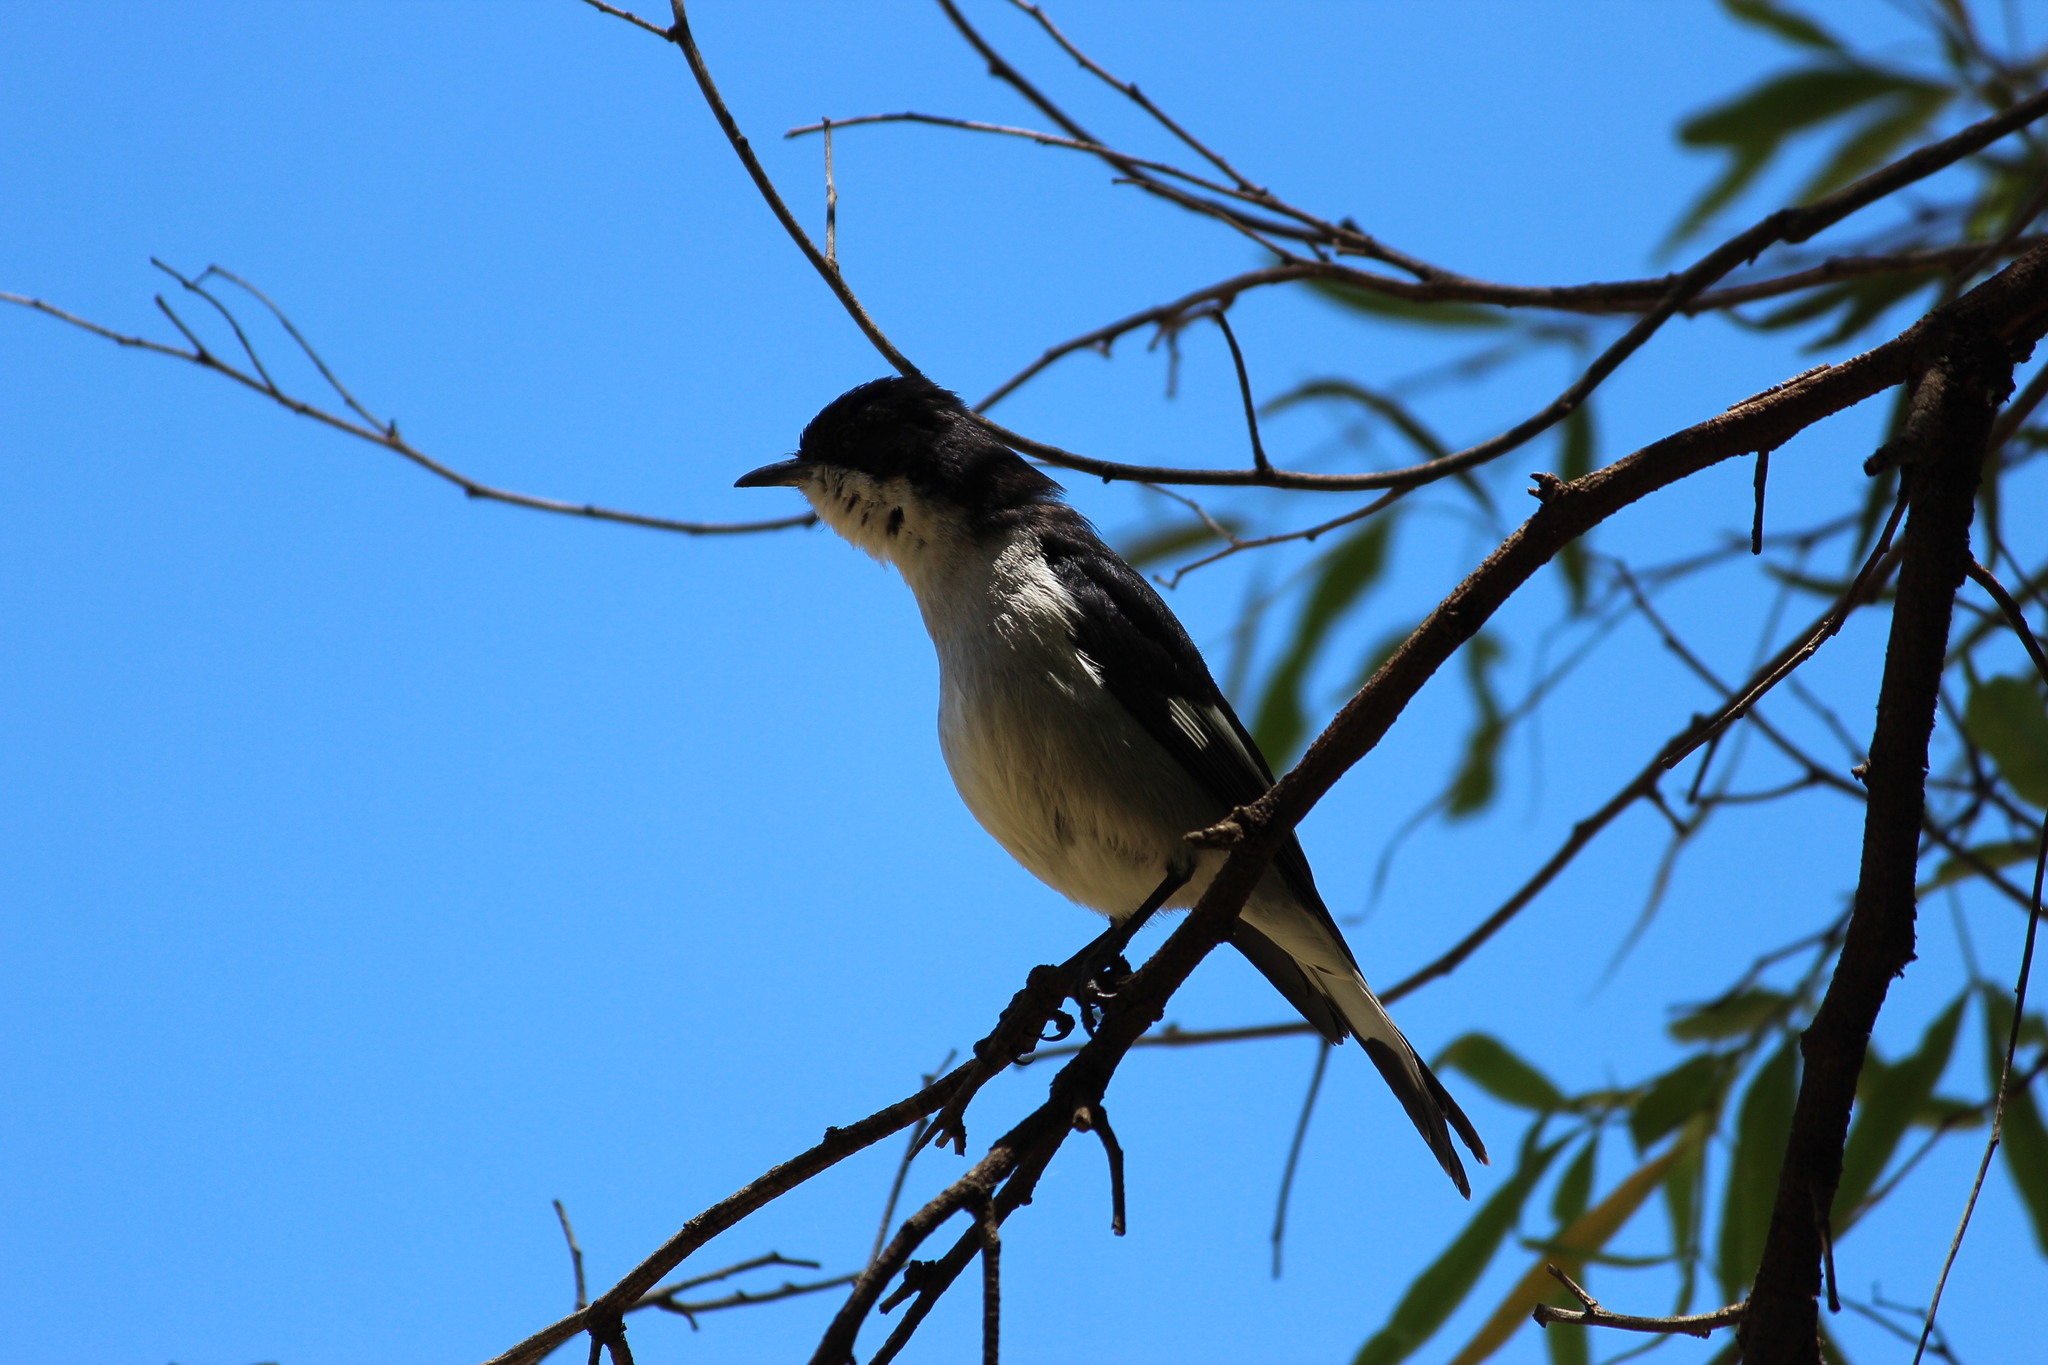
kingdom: Animalia
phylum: Chordata
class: Aves
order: Passeriformes
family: Muscicapidae
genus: Sigelus
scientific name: Sigelus silens
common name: Fiscal flycatcher
